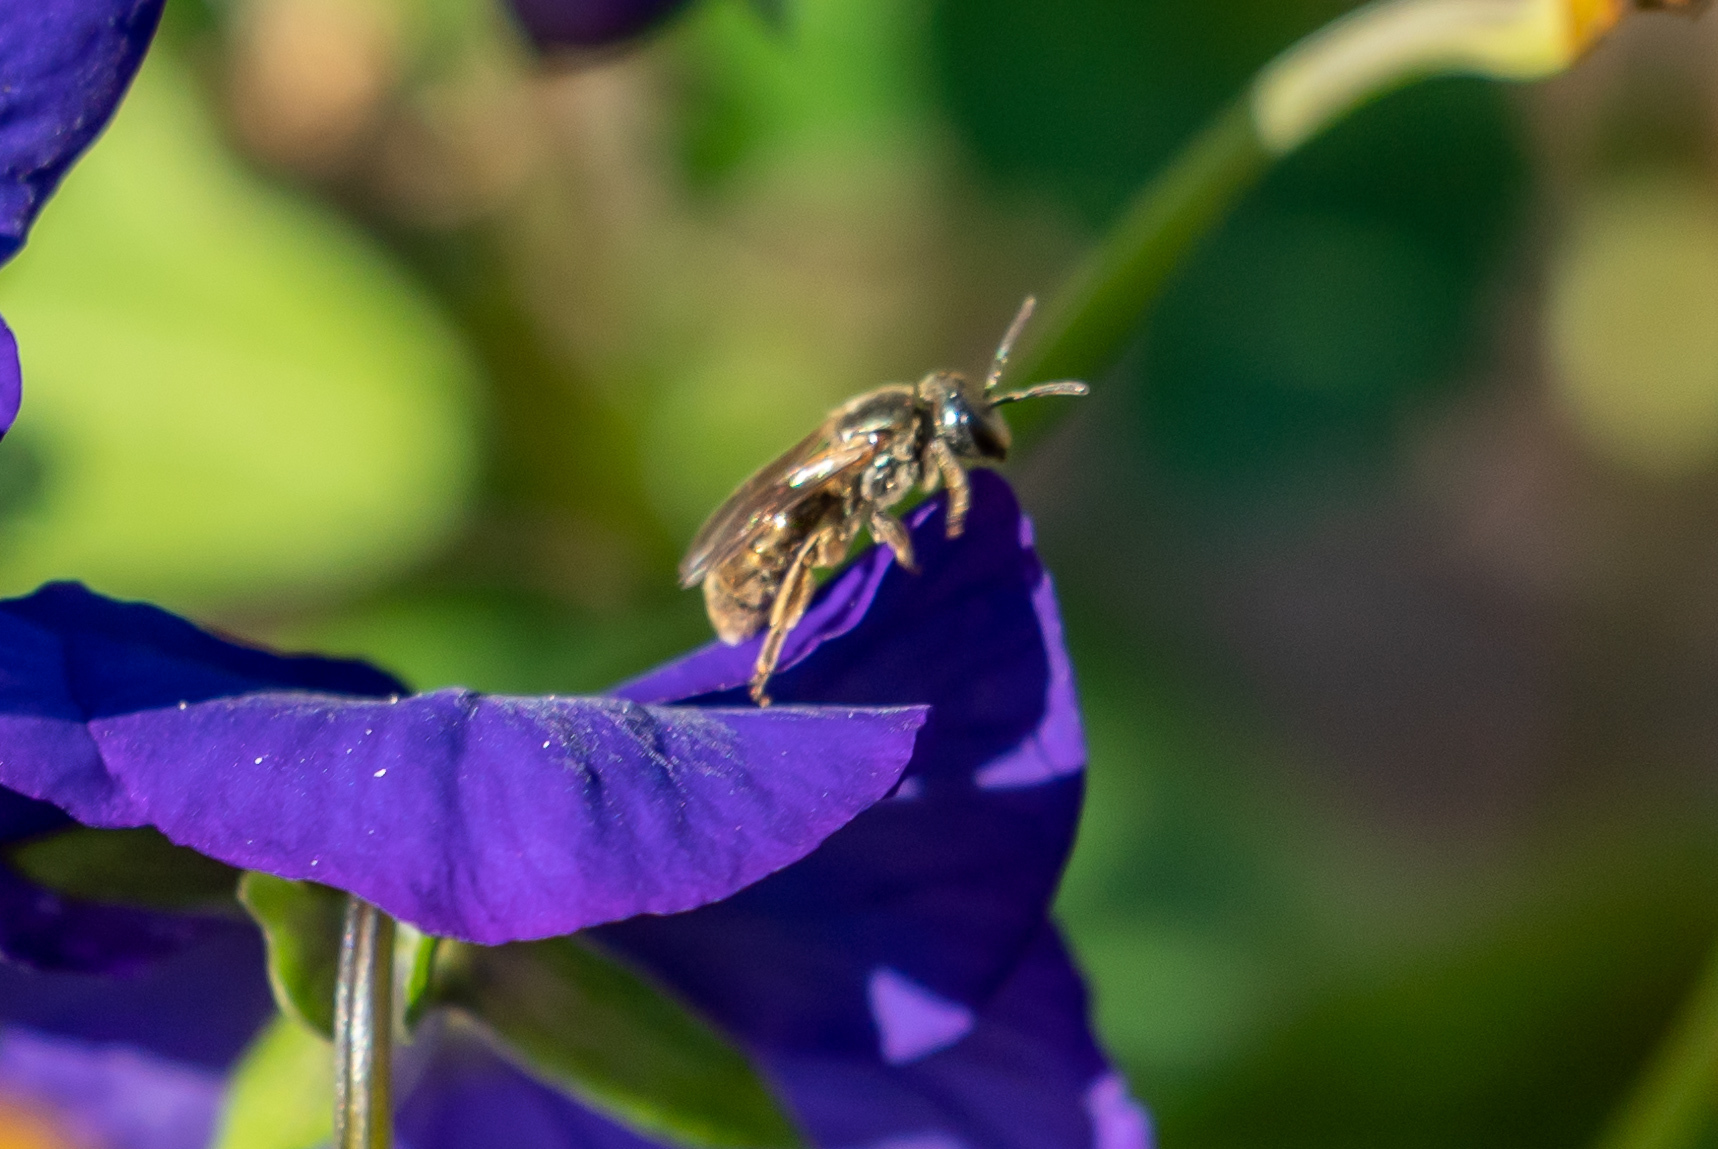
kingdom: Animalia
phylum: Arthropoda
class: Insecta
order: Hymenoptera
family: Halictidae
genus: Dialictus
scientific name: Dialictus
